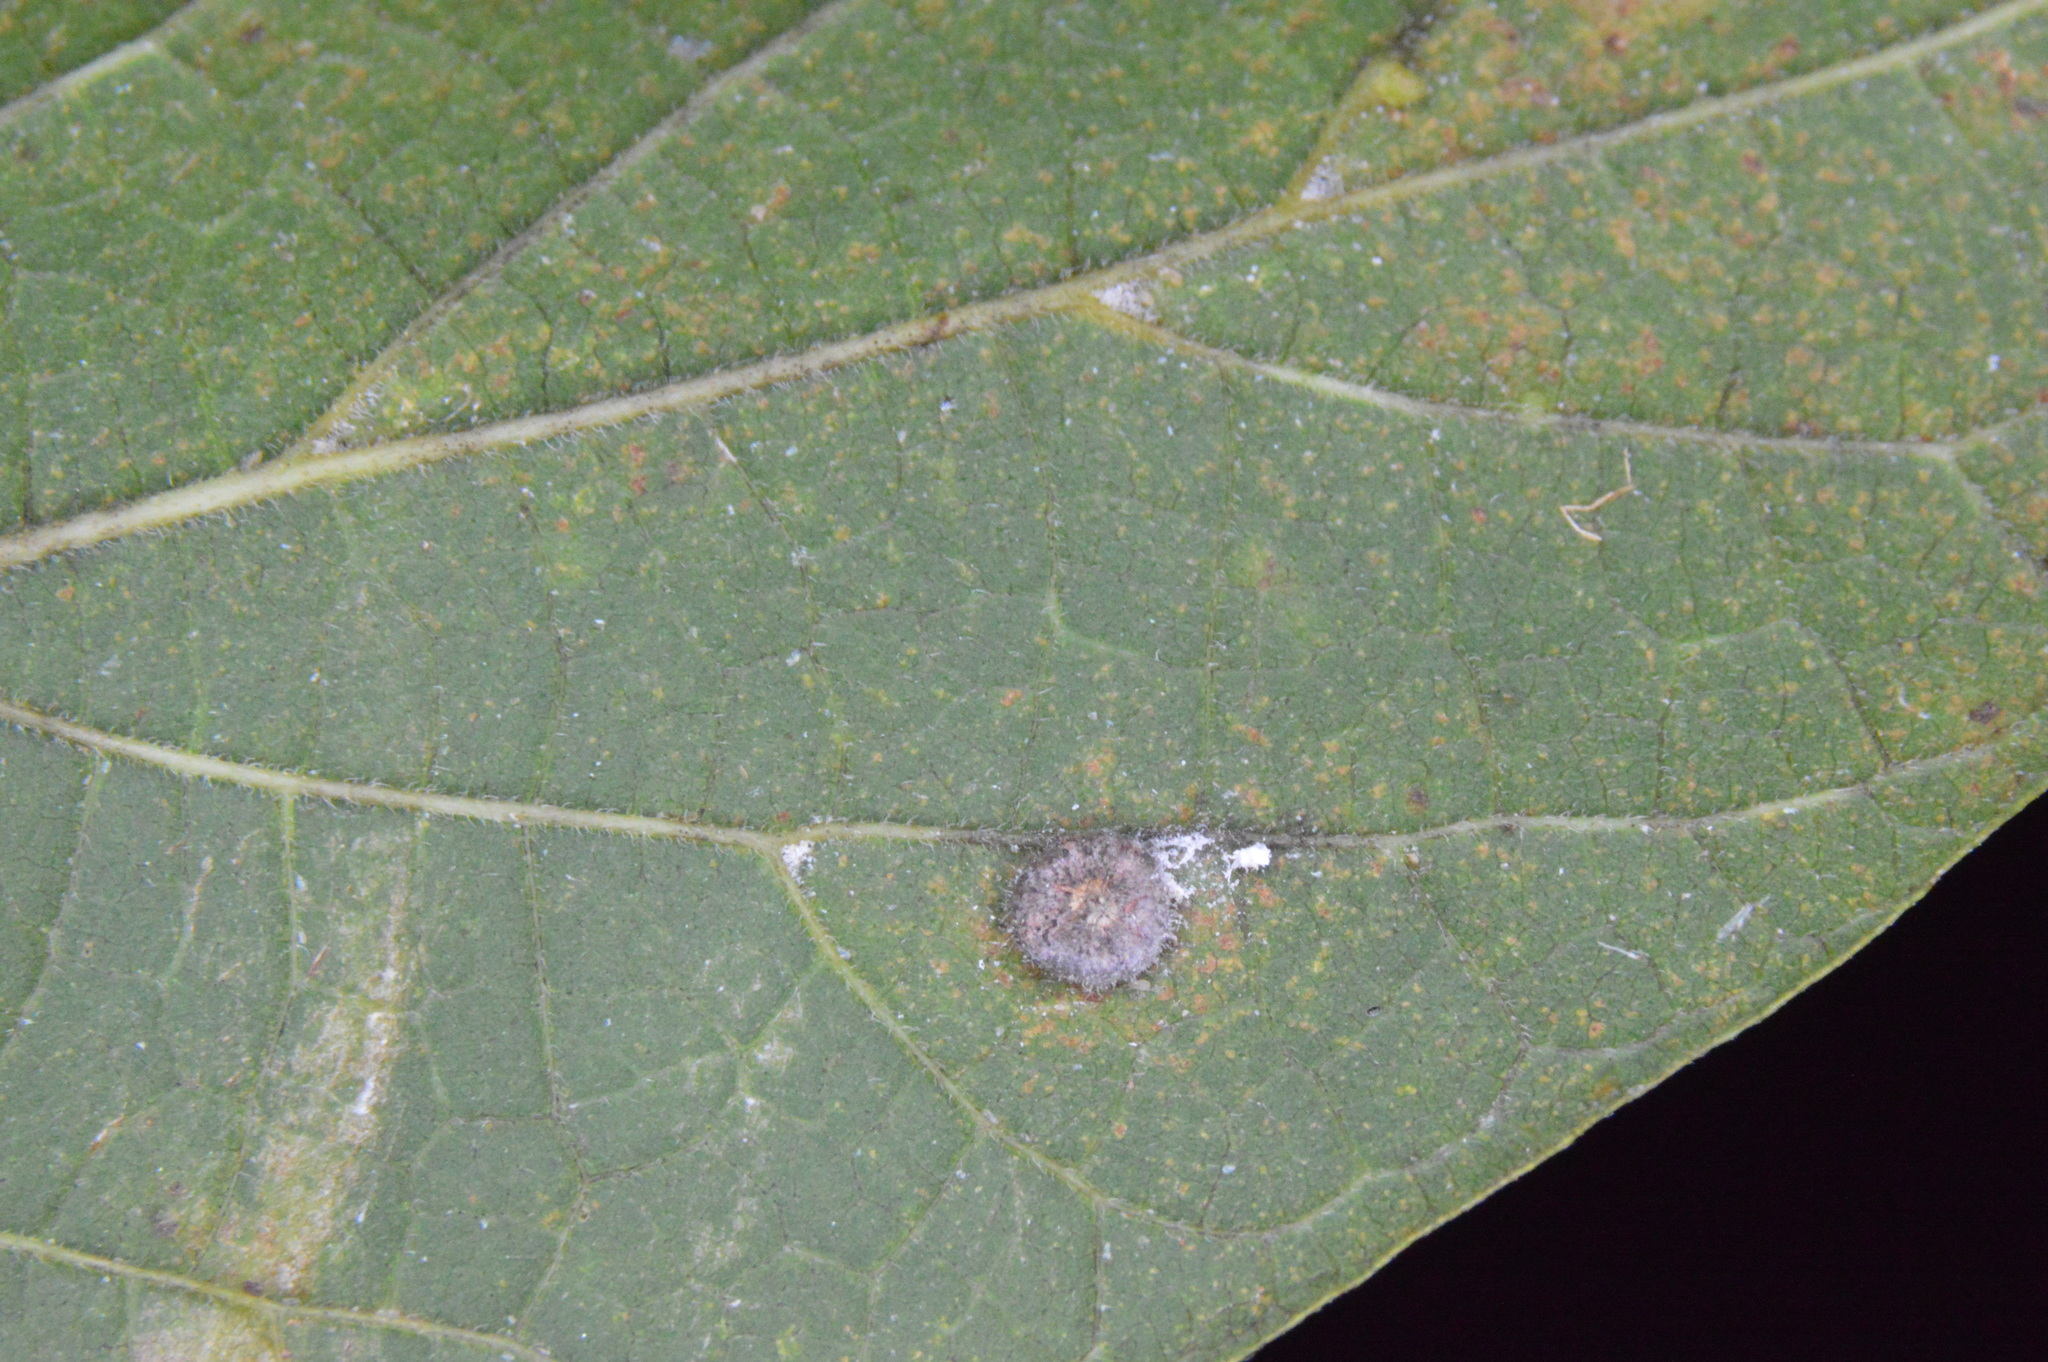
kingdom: Animalia
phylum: Arthropoda
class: Insecta
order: Diptera
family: Cecidomyiidae
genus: Celticecis
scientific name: Celticecis capsularis
